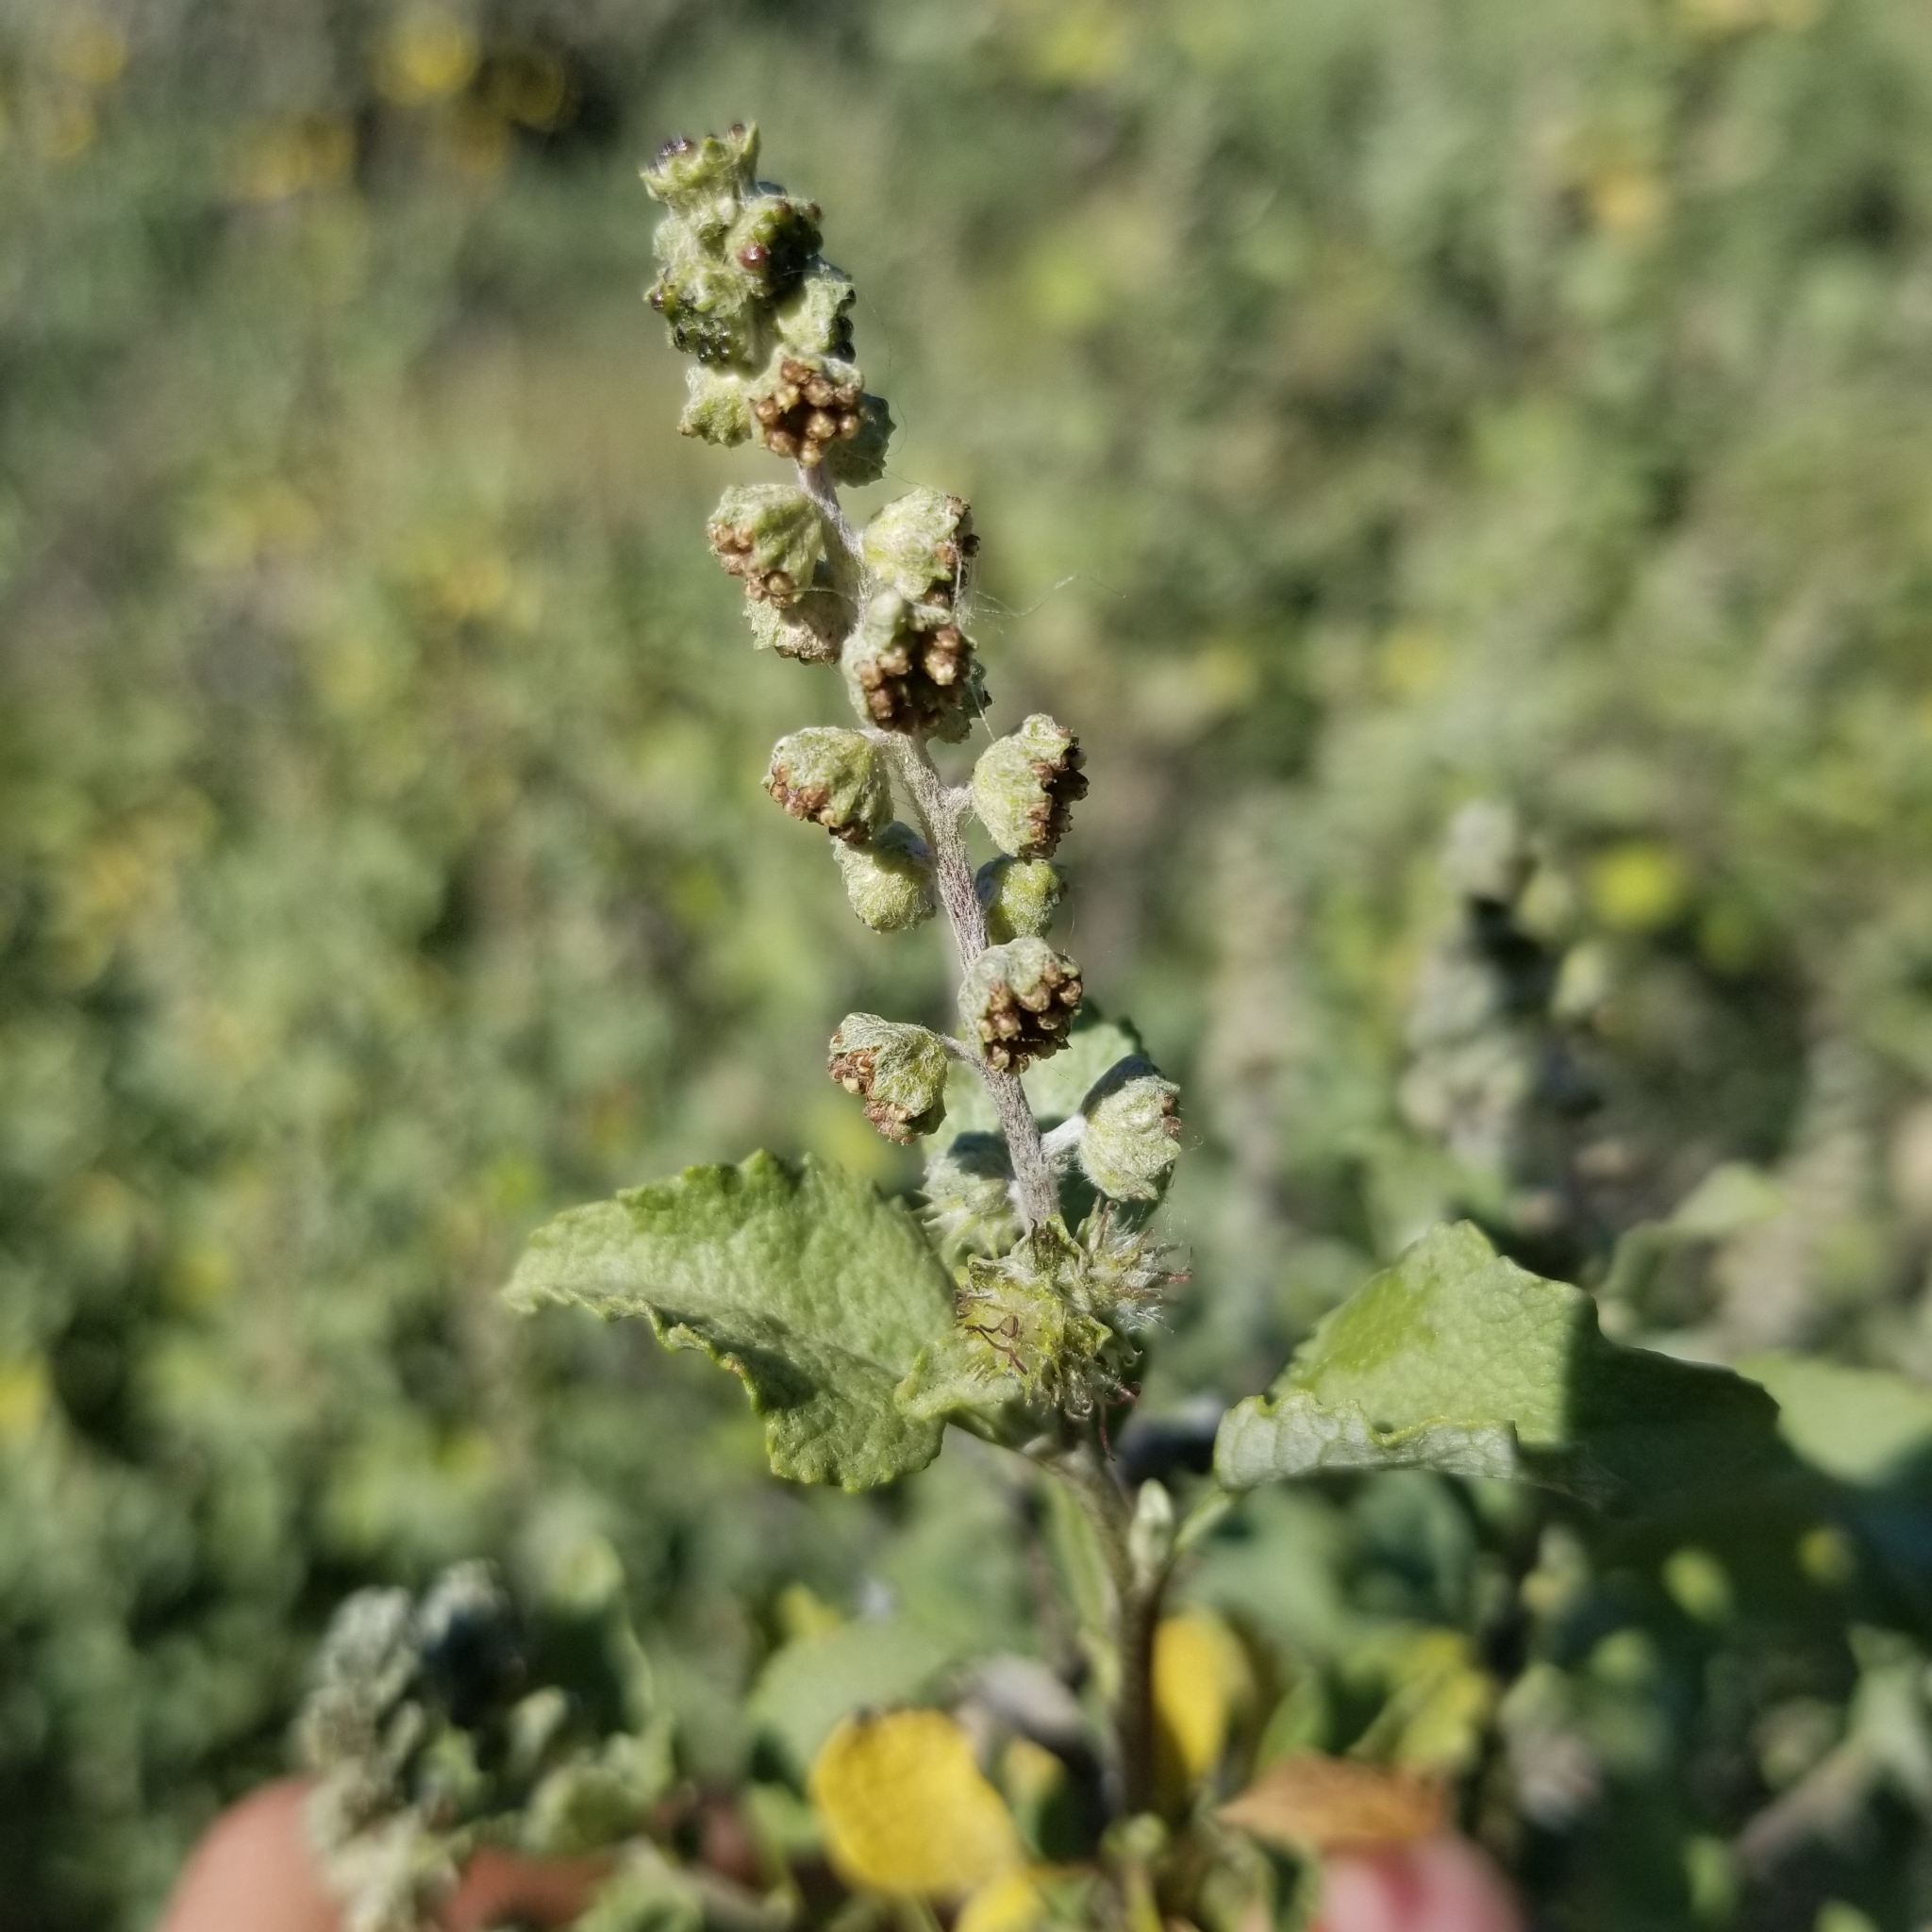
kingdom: Plantae
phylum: Tracheophyta
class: Magnoliopsida
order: Asterales
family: Asteraceae
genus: Ambrosia
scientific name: Ambrosia chenopodiifolia
